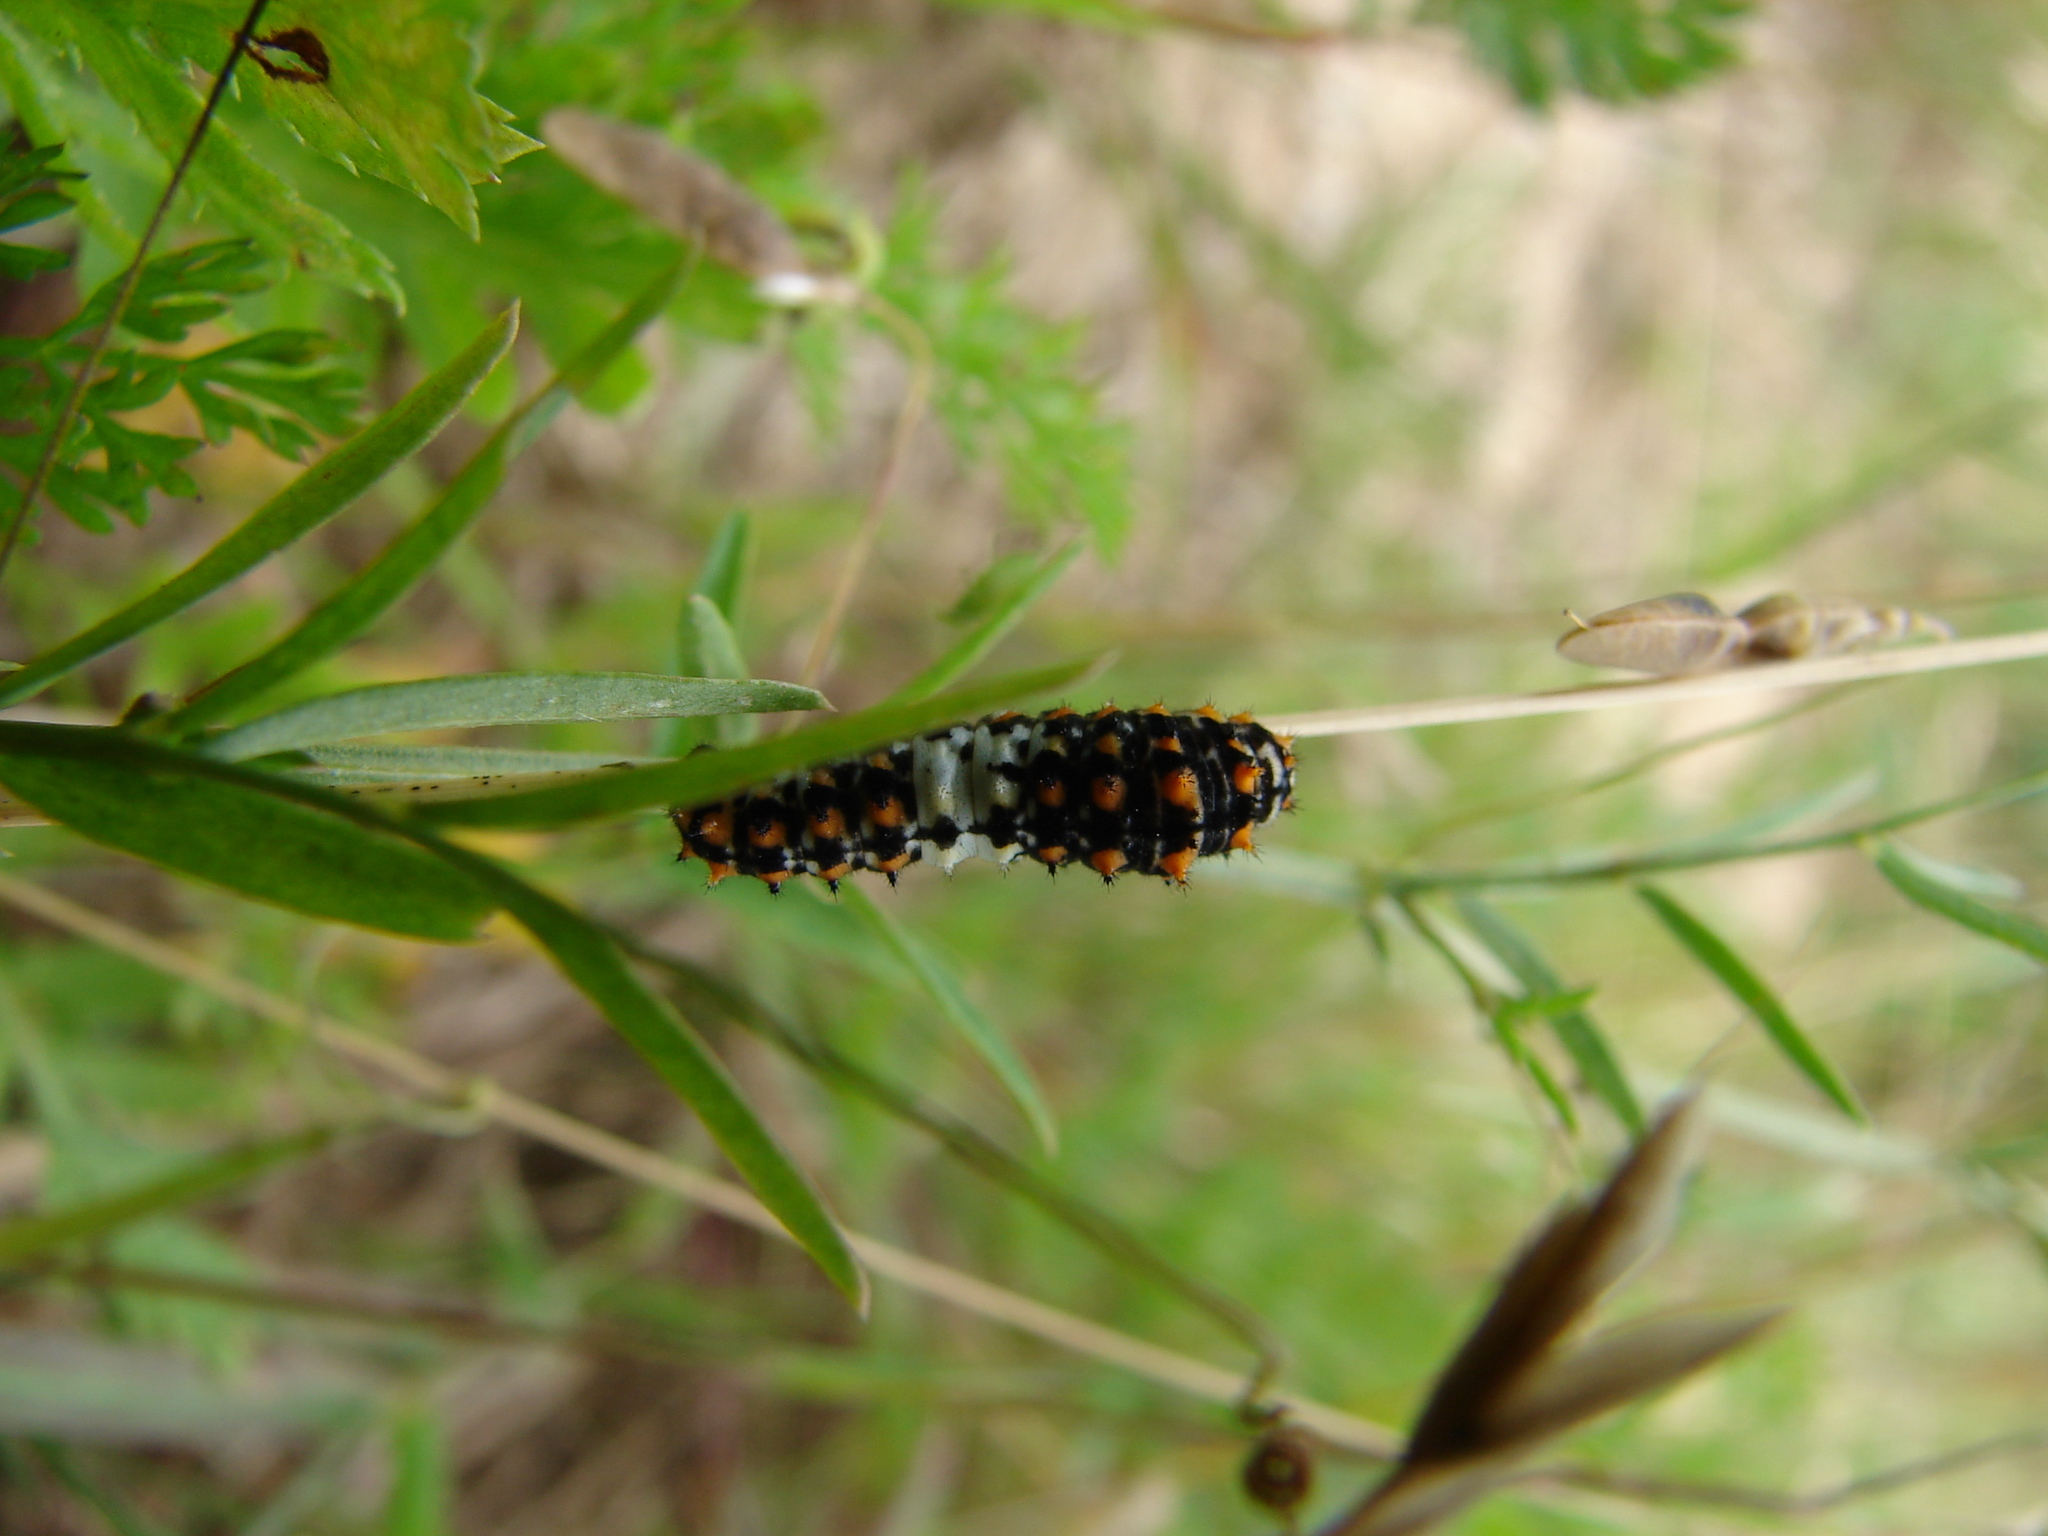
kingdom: Animalia
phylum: Arthropoda
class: Insecta
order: Lepidoptera
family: Papilionidae
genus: Papilio
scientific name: Papilio machaon
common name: Swallowtail
